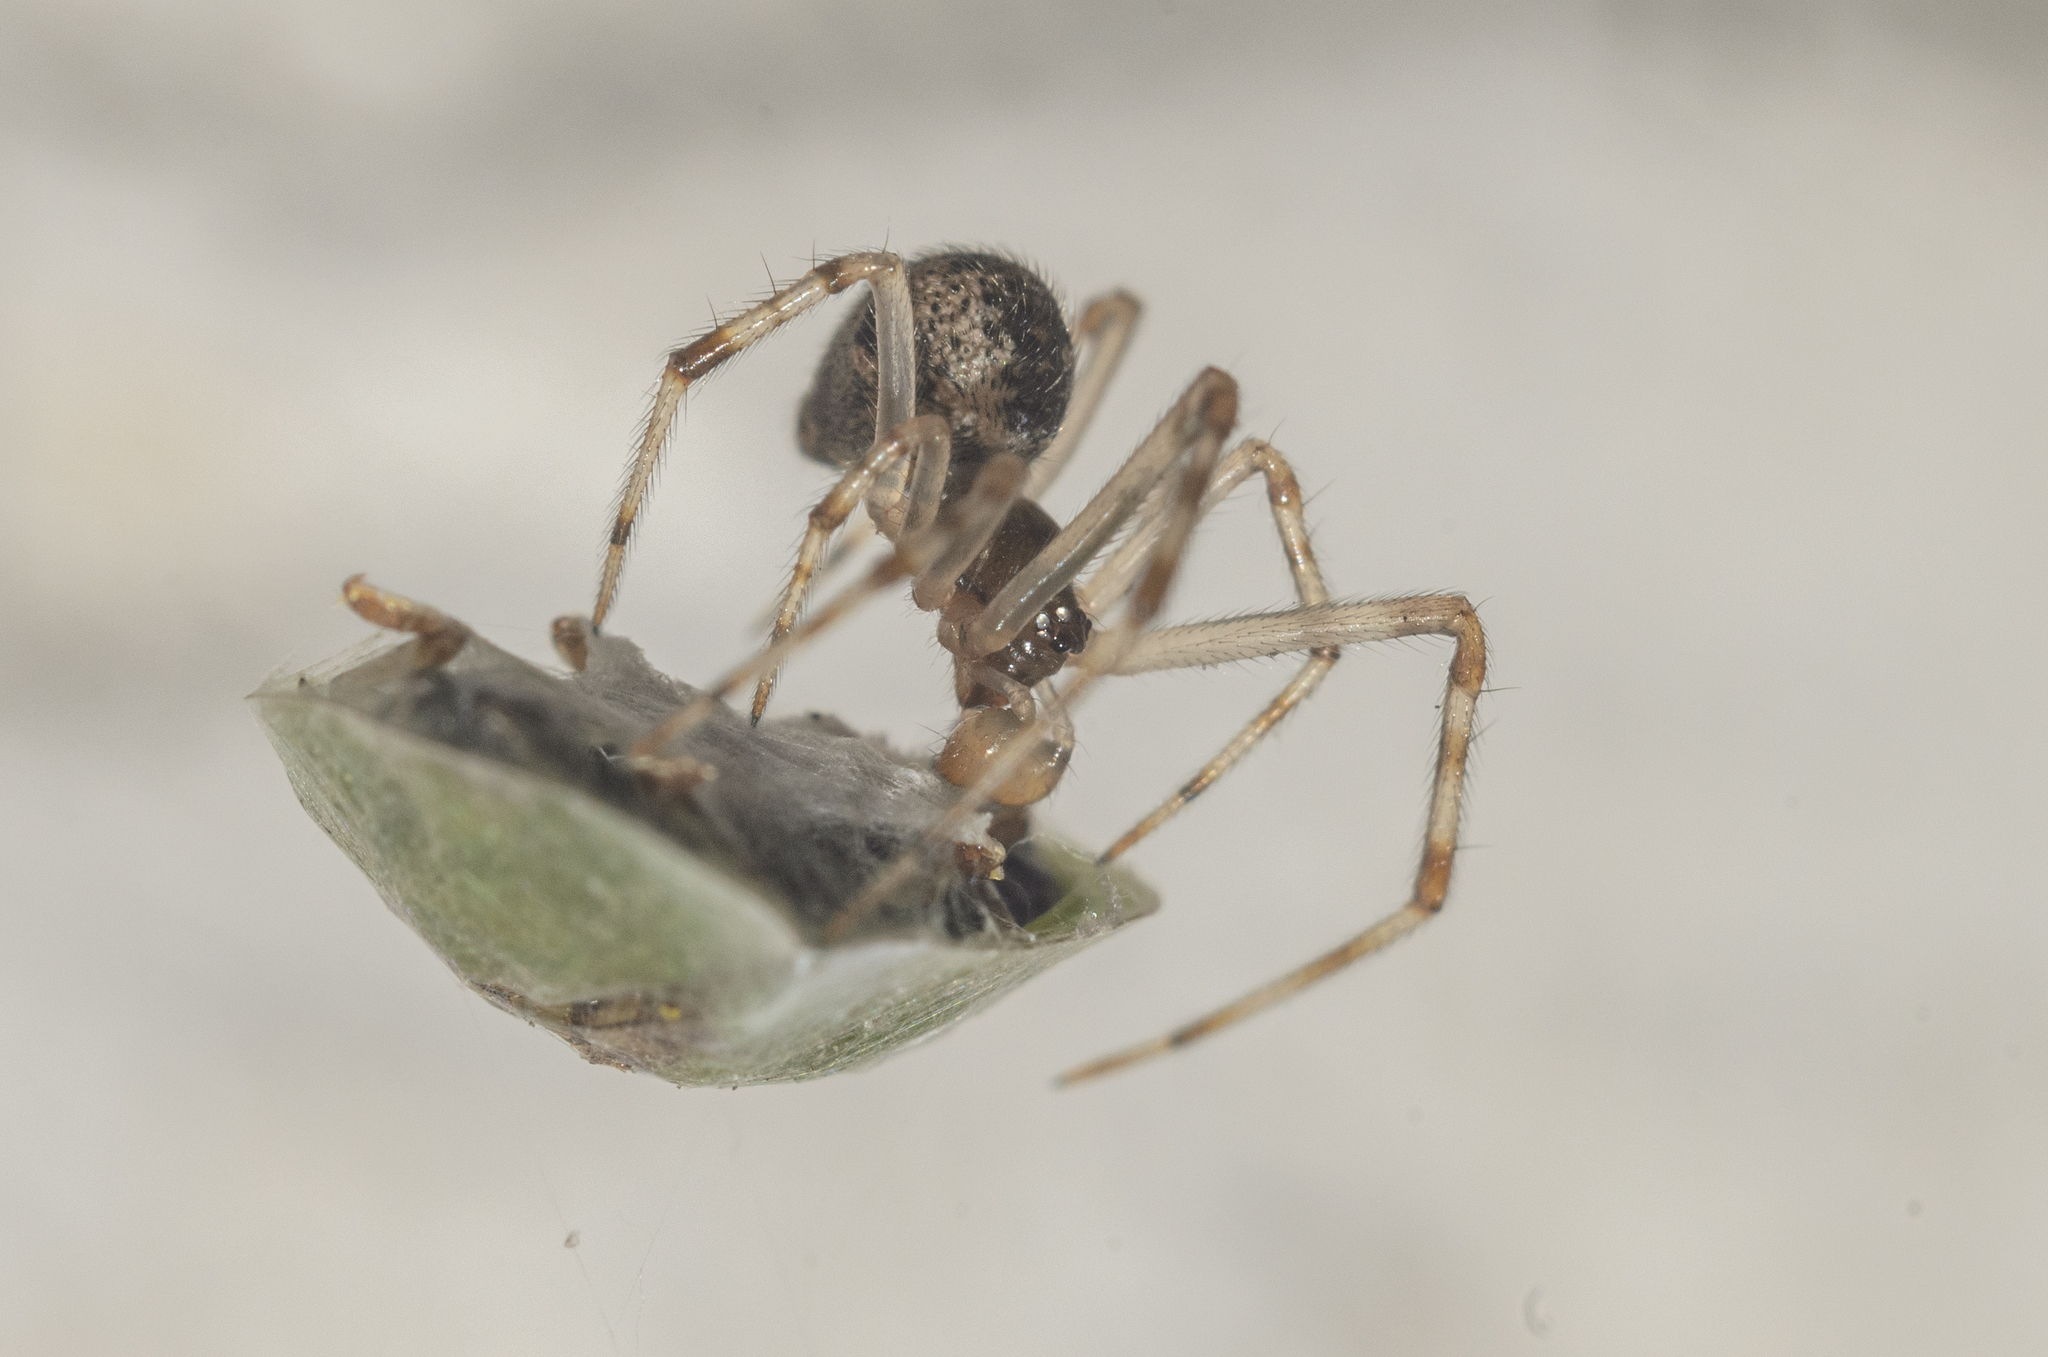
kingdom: Animalia
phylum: Arthropoda
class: Arachnida
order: Araneae
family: Theridiidae
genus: Parasteatoda
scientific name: Parasteatoda tepidariorum
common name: Common house spider
